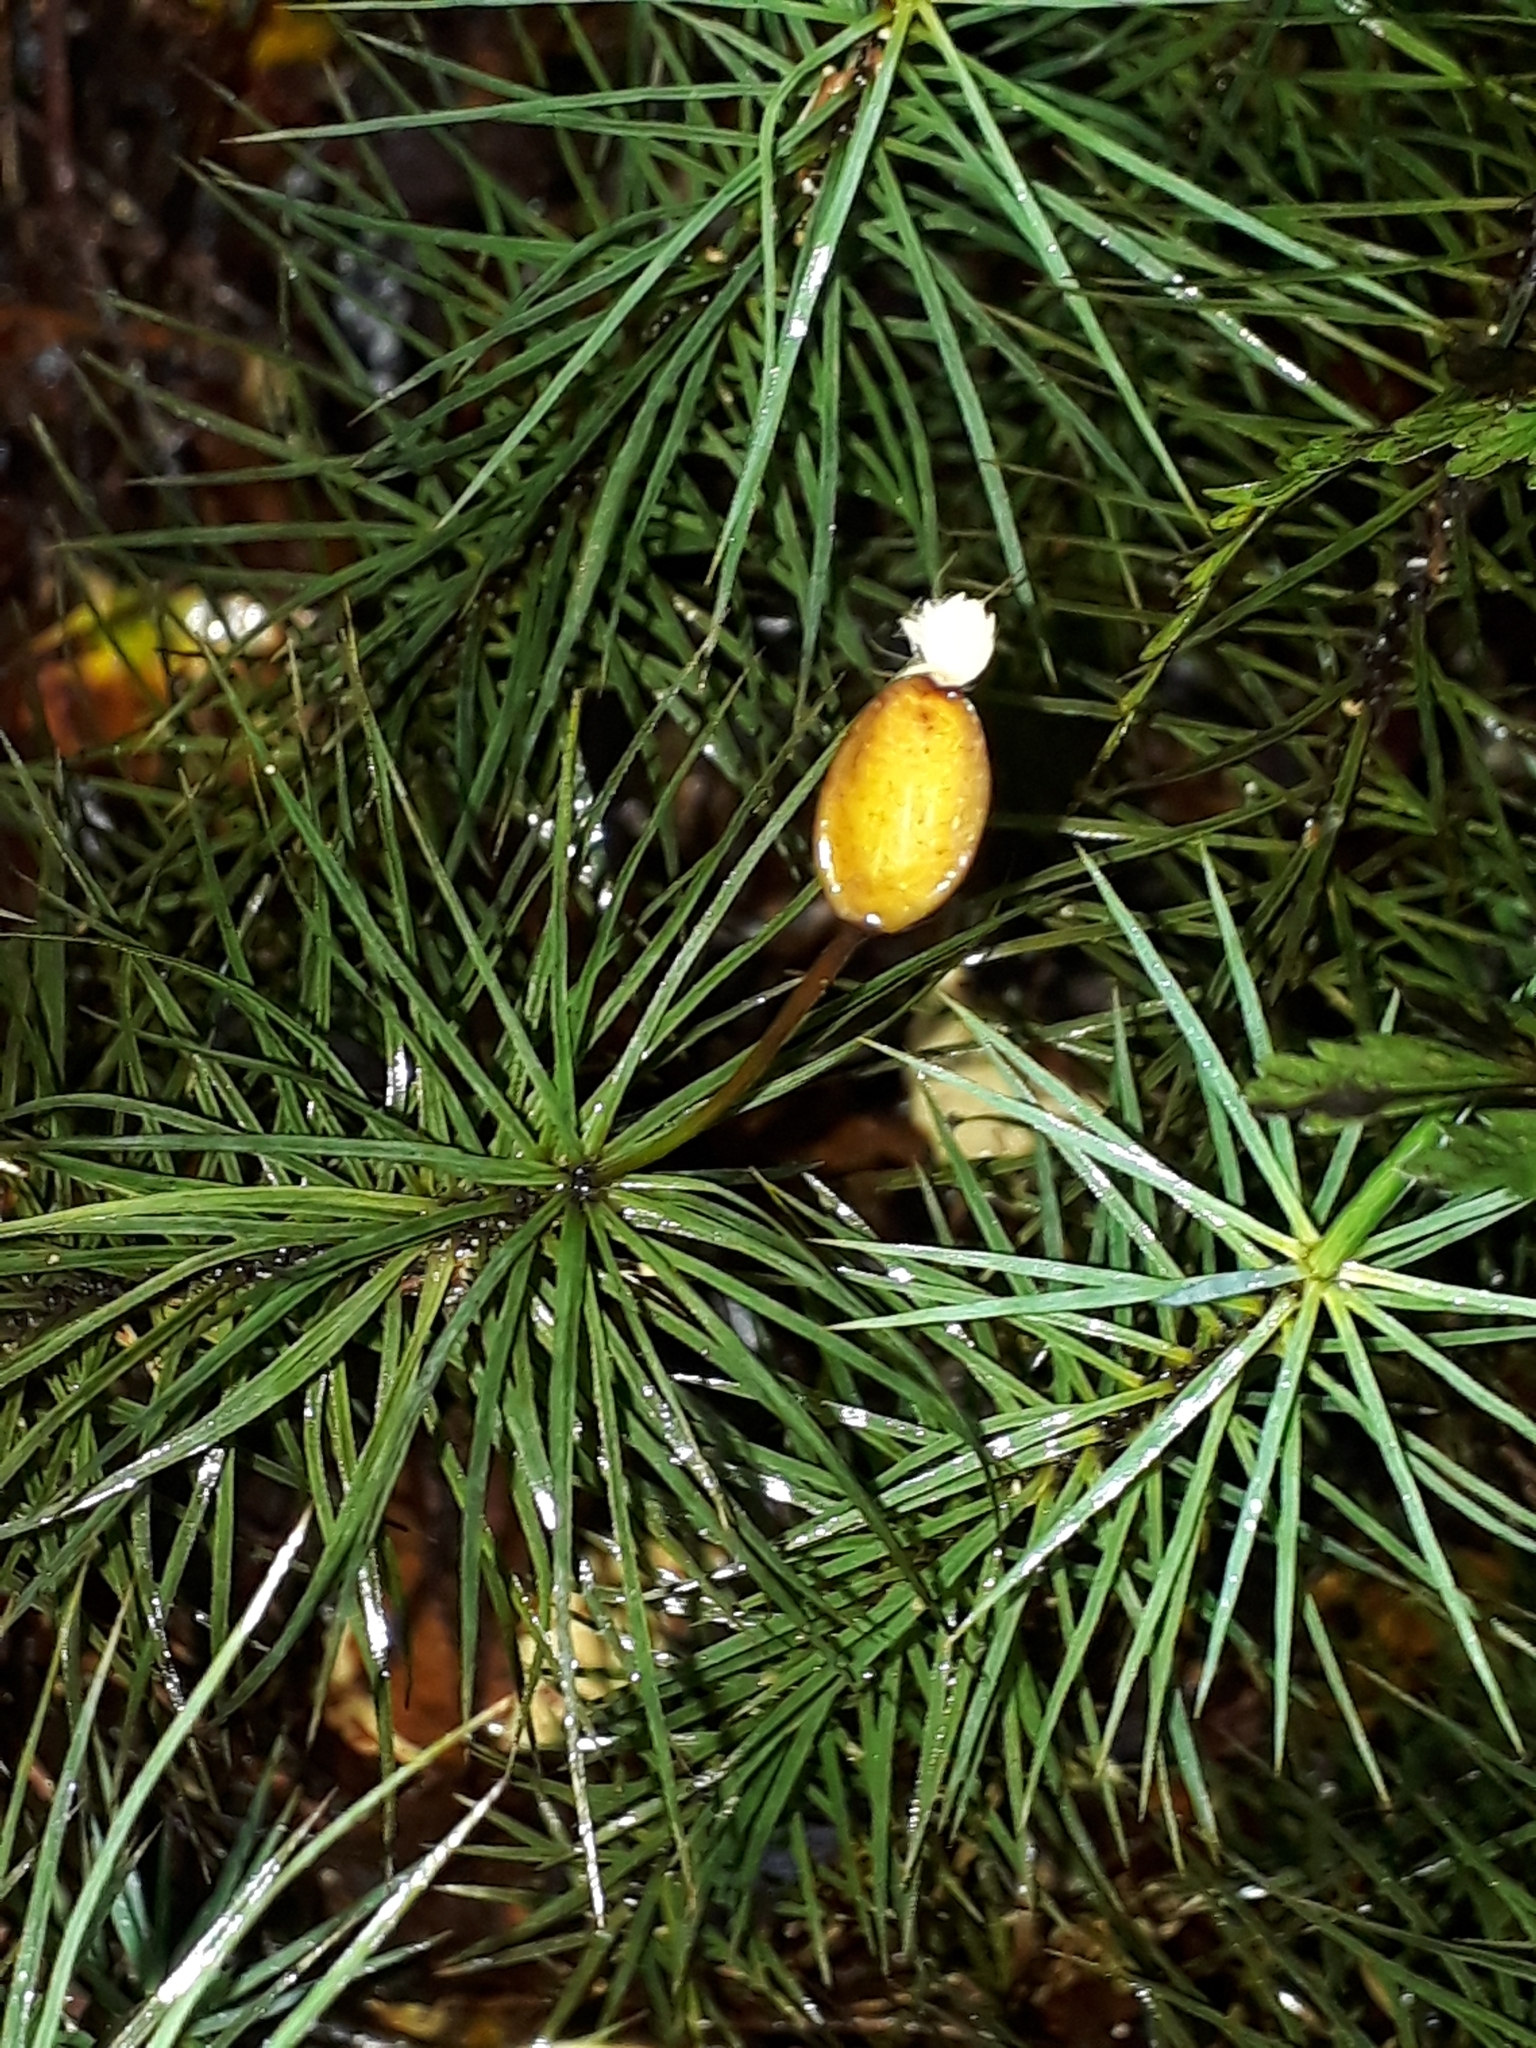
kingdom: Plantae
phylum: Bryophyta
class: Polytrichopsida
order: Polytrichales
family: Polytrichaceae
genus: Dawsonia
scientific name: Dawsonia superba
